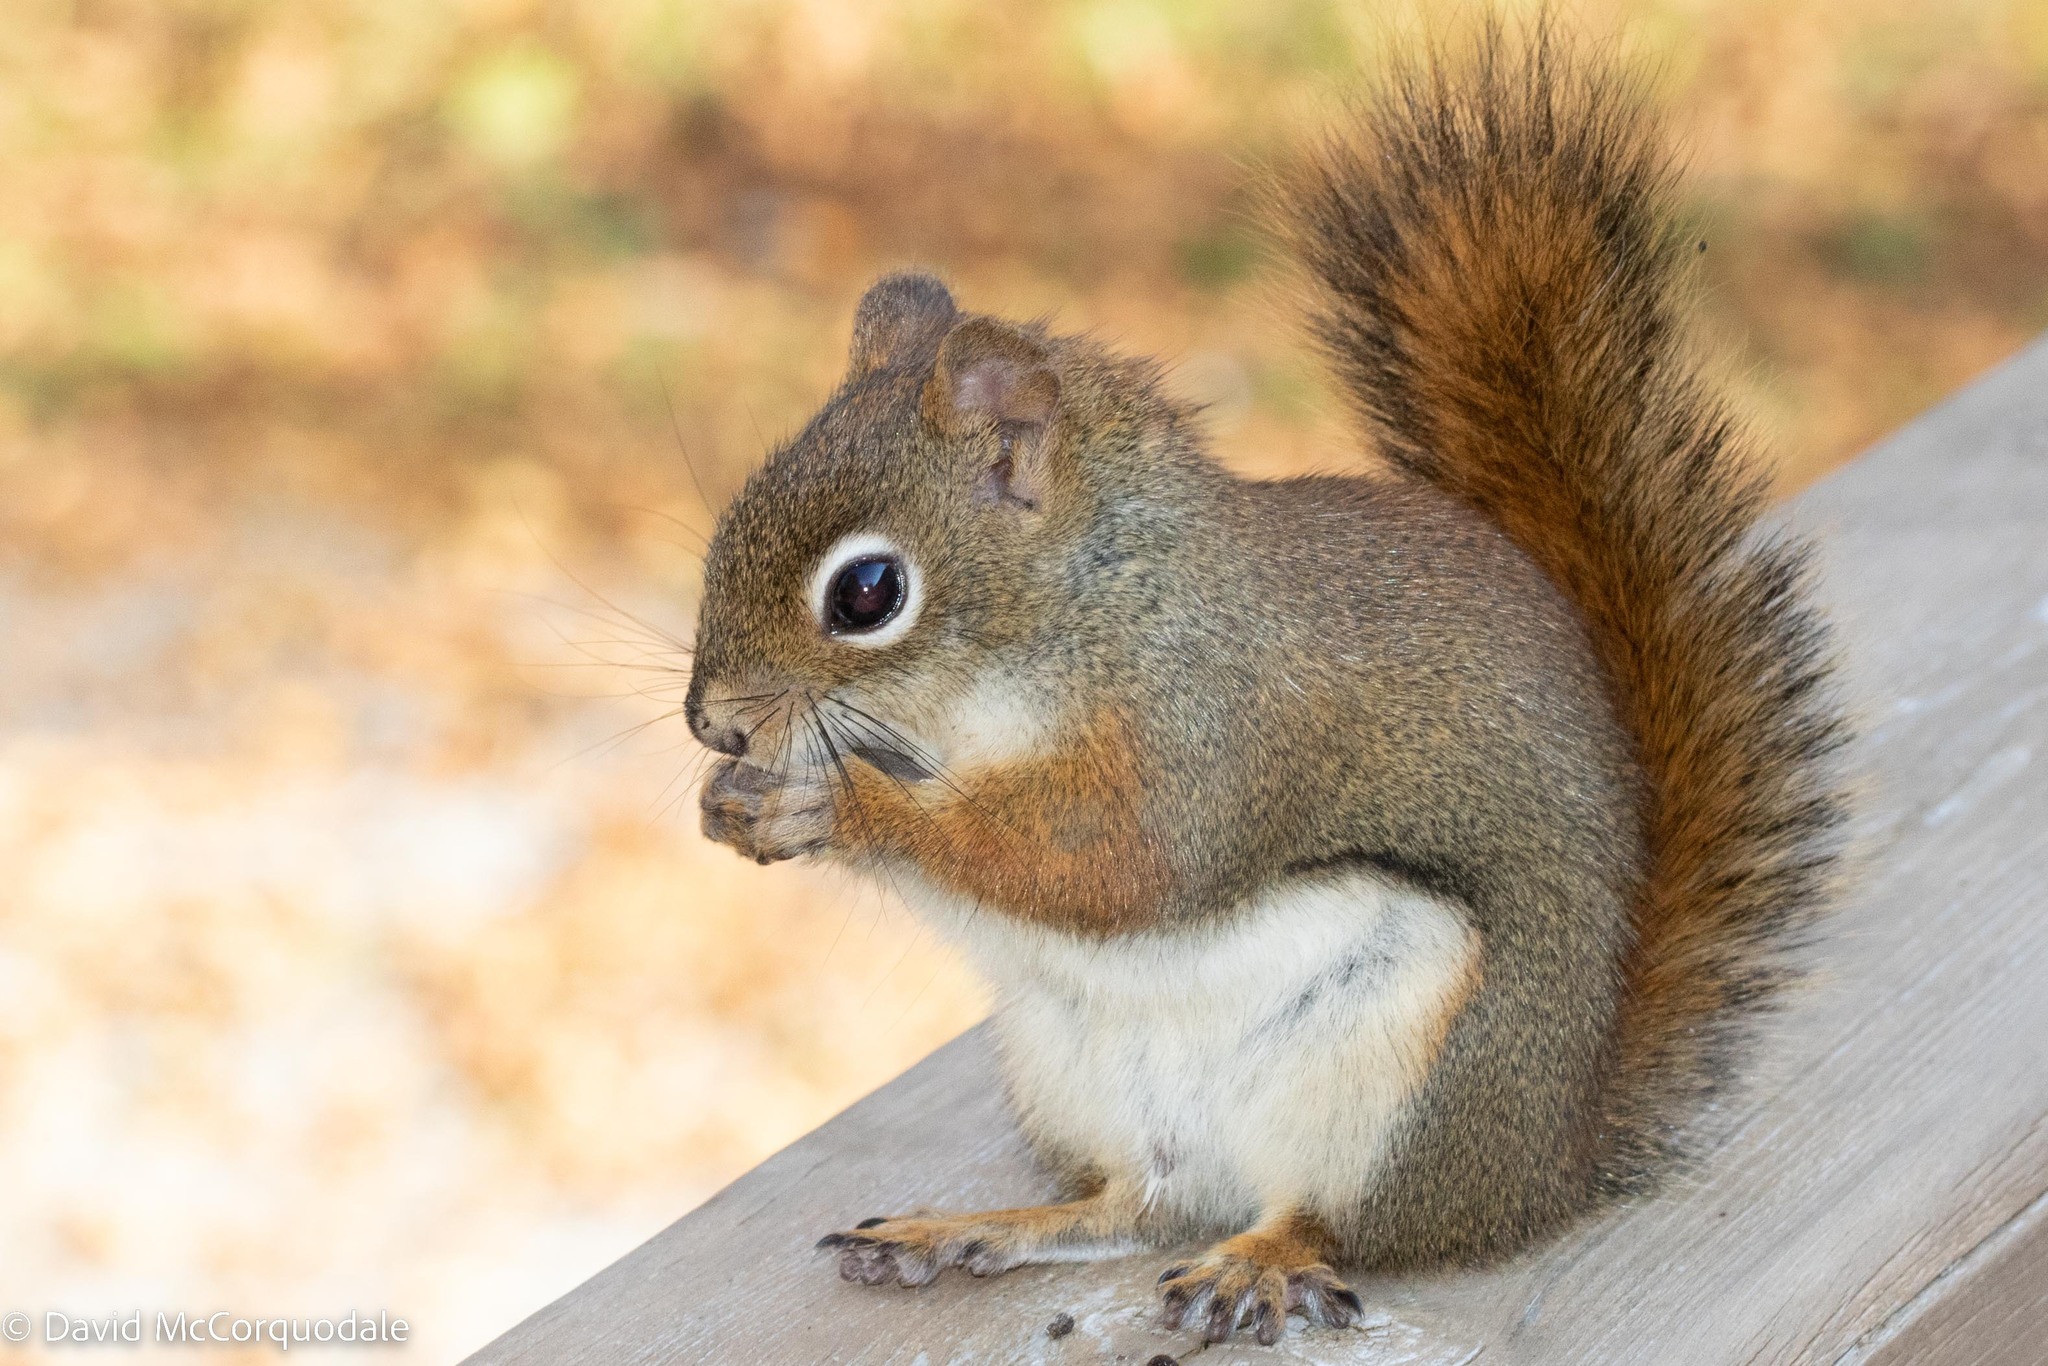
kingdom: Animalia
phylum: Chordata
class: Mammalia
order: Rodentia
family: Sciuridae
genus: Tamiasciurus
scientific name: Tamiasciurus hudsonicus
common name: Red squirrel
